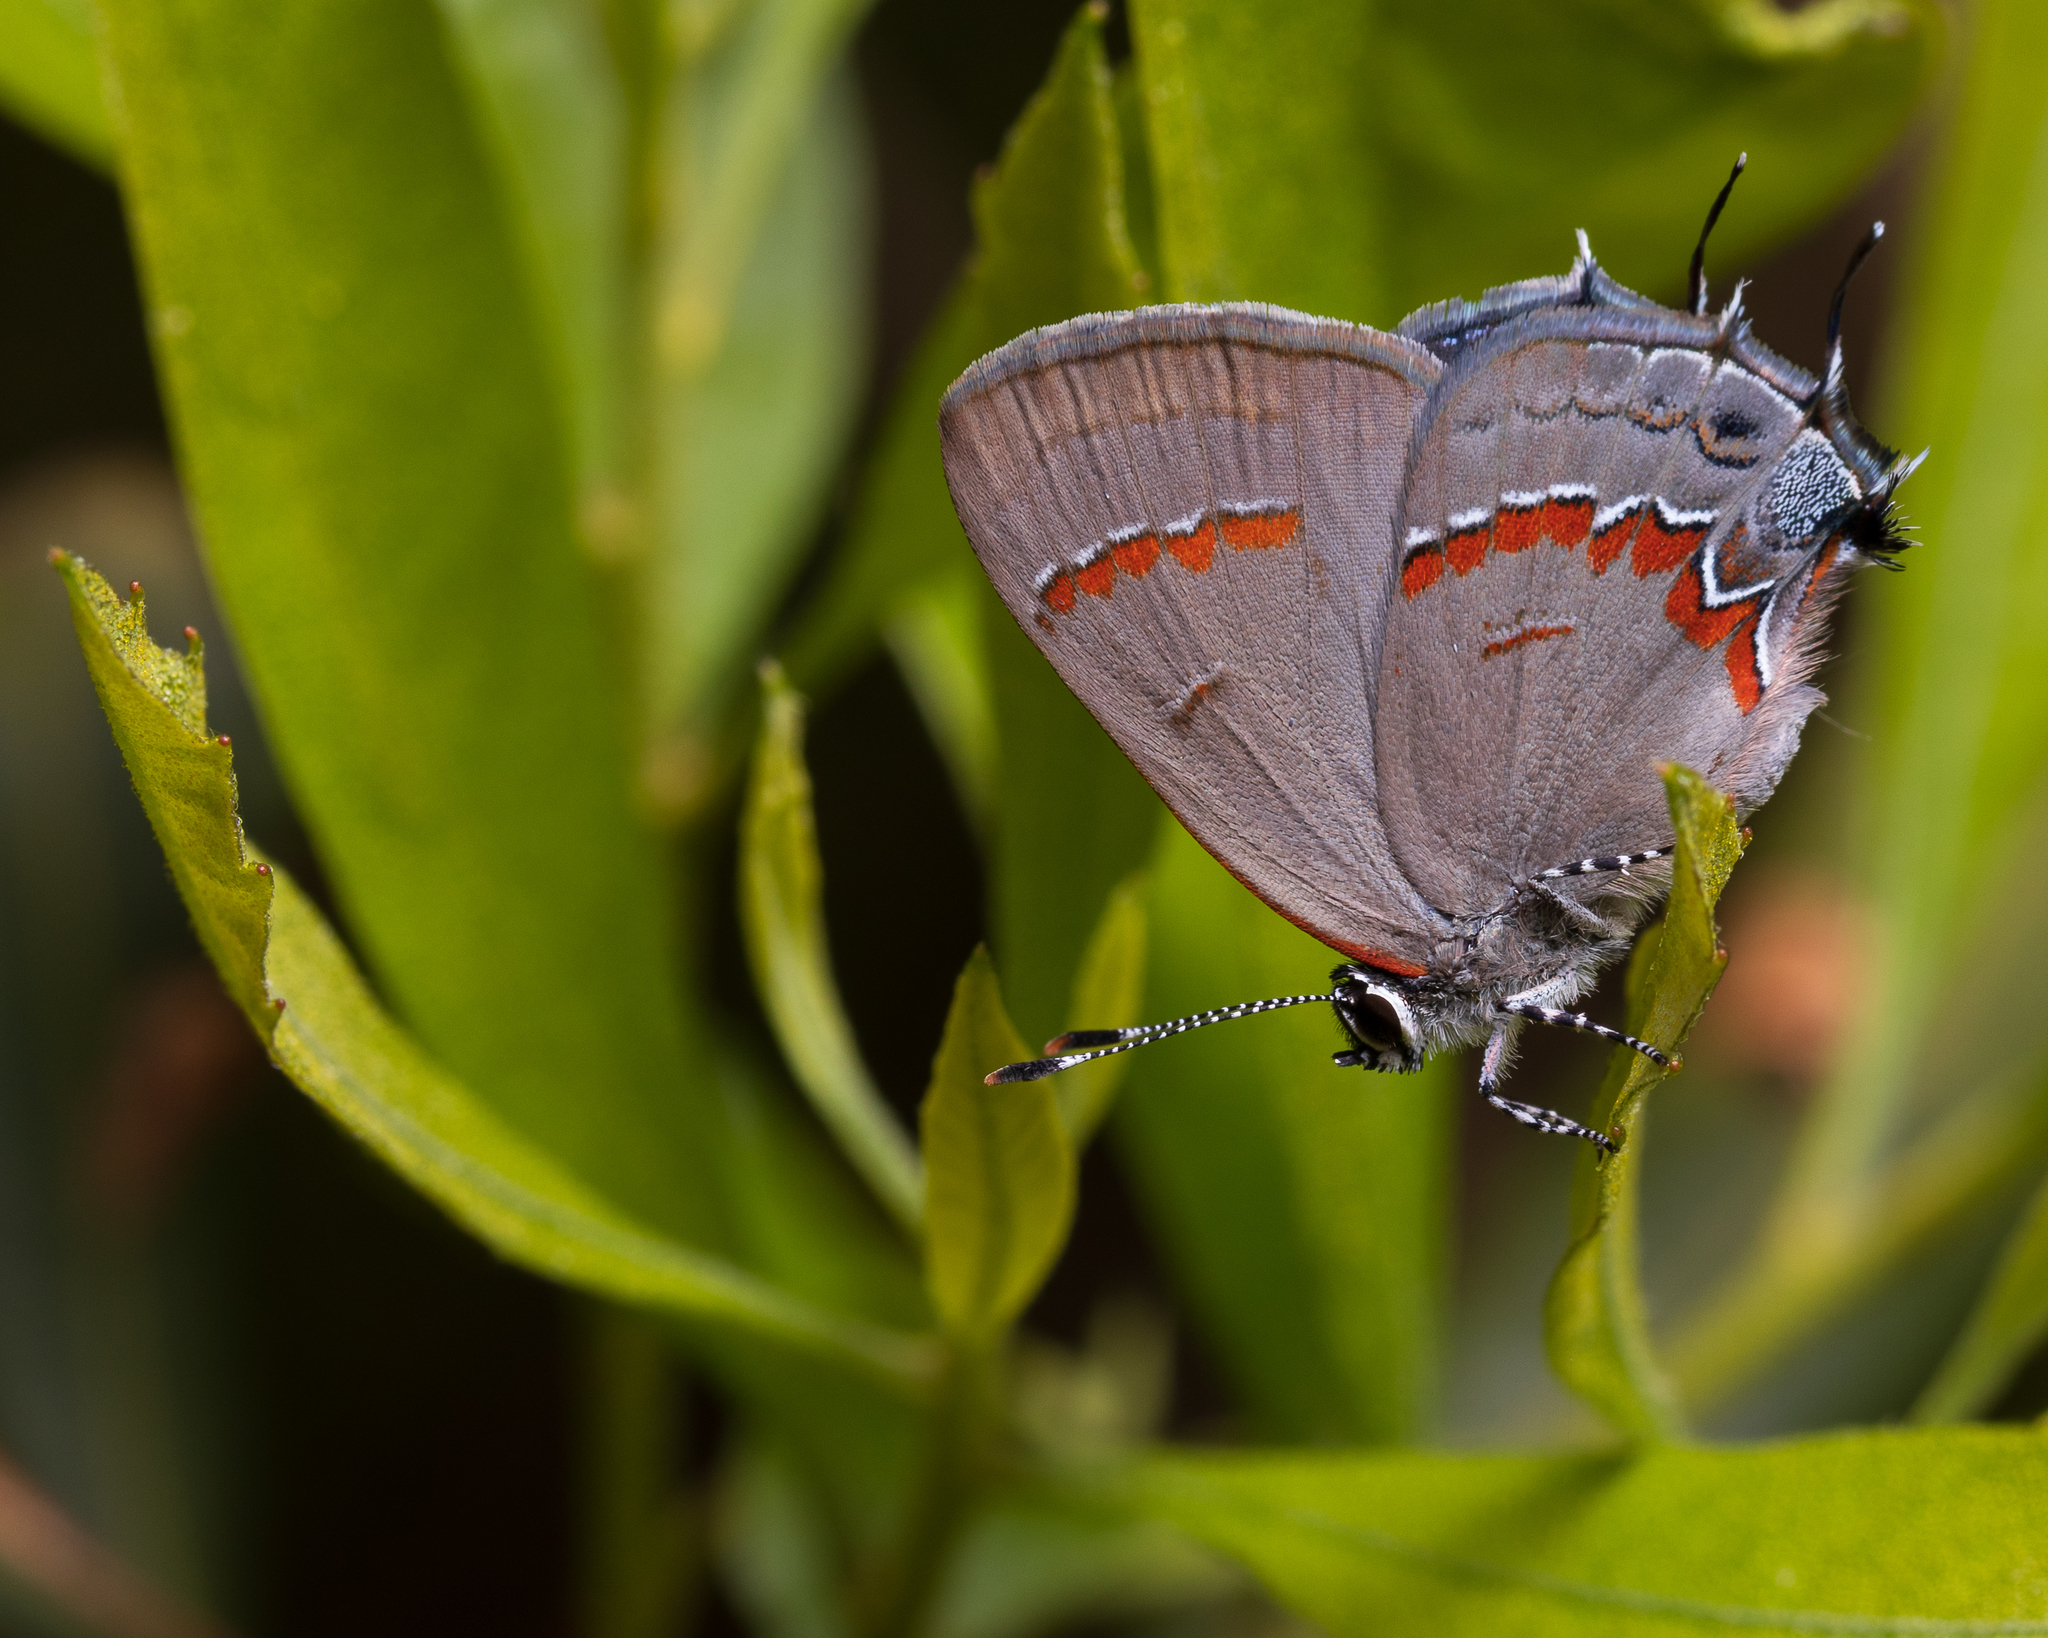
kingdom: Animalia
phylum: Arthropoda
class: Insecta
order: Lepidoptera
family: Lycaenidae
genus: Calycopis
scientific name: Calycopis cecrops
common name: Red-banded hairstreak
